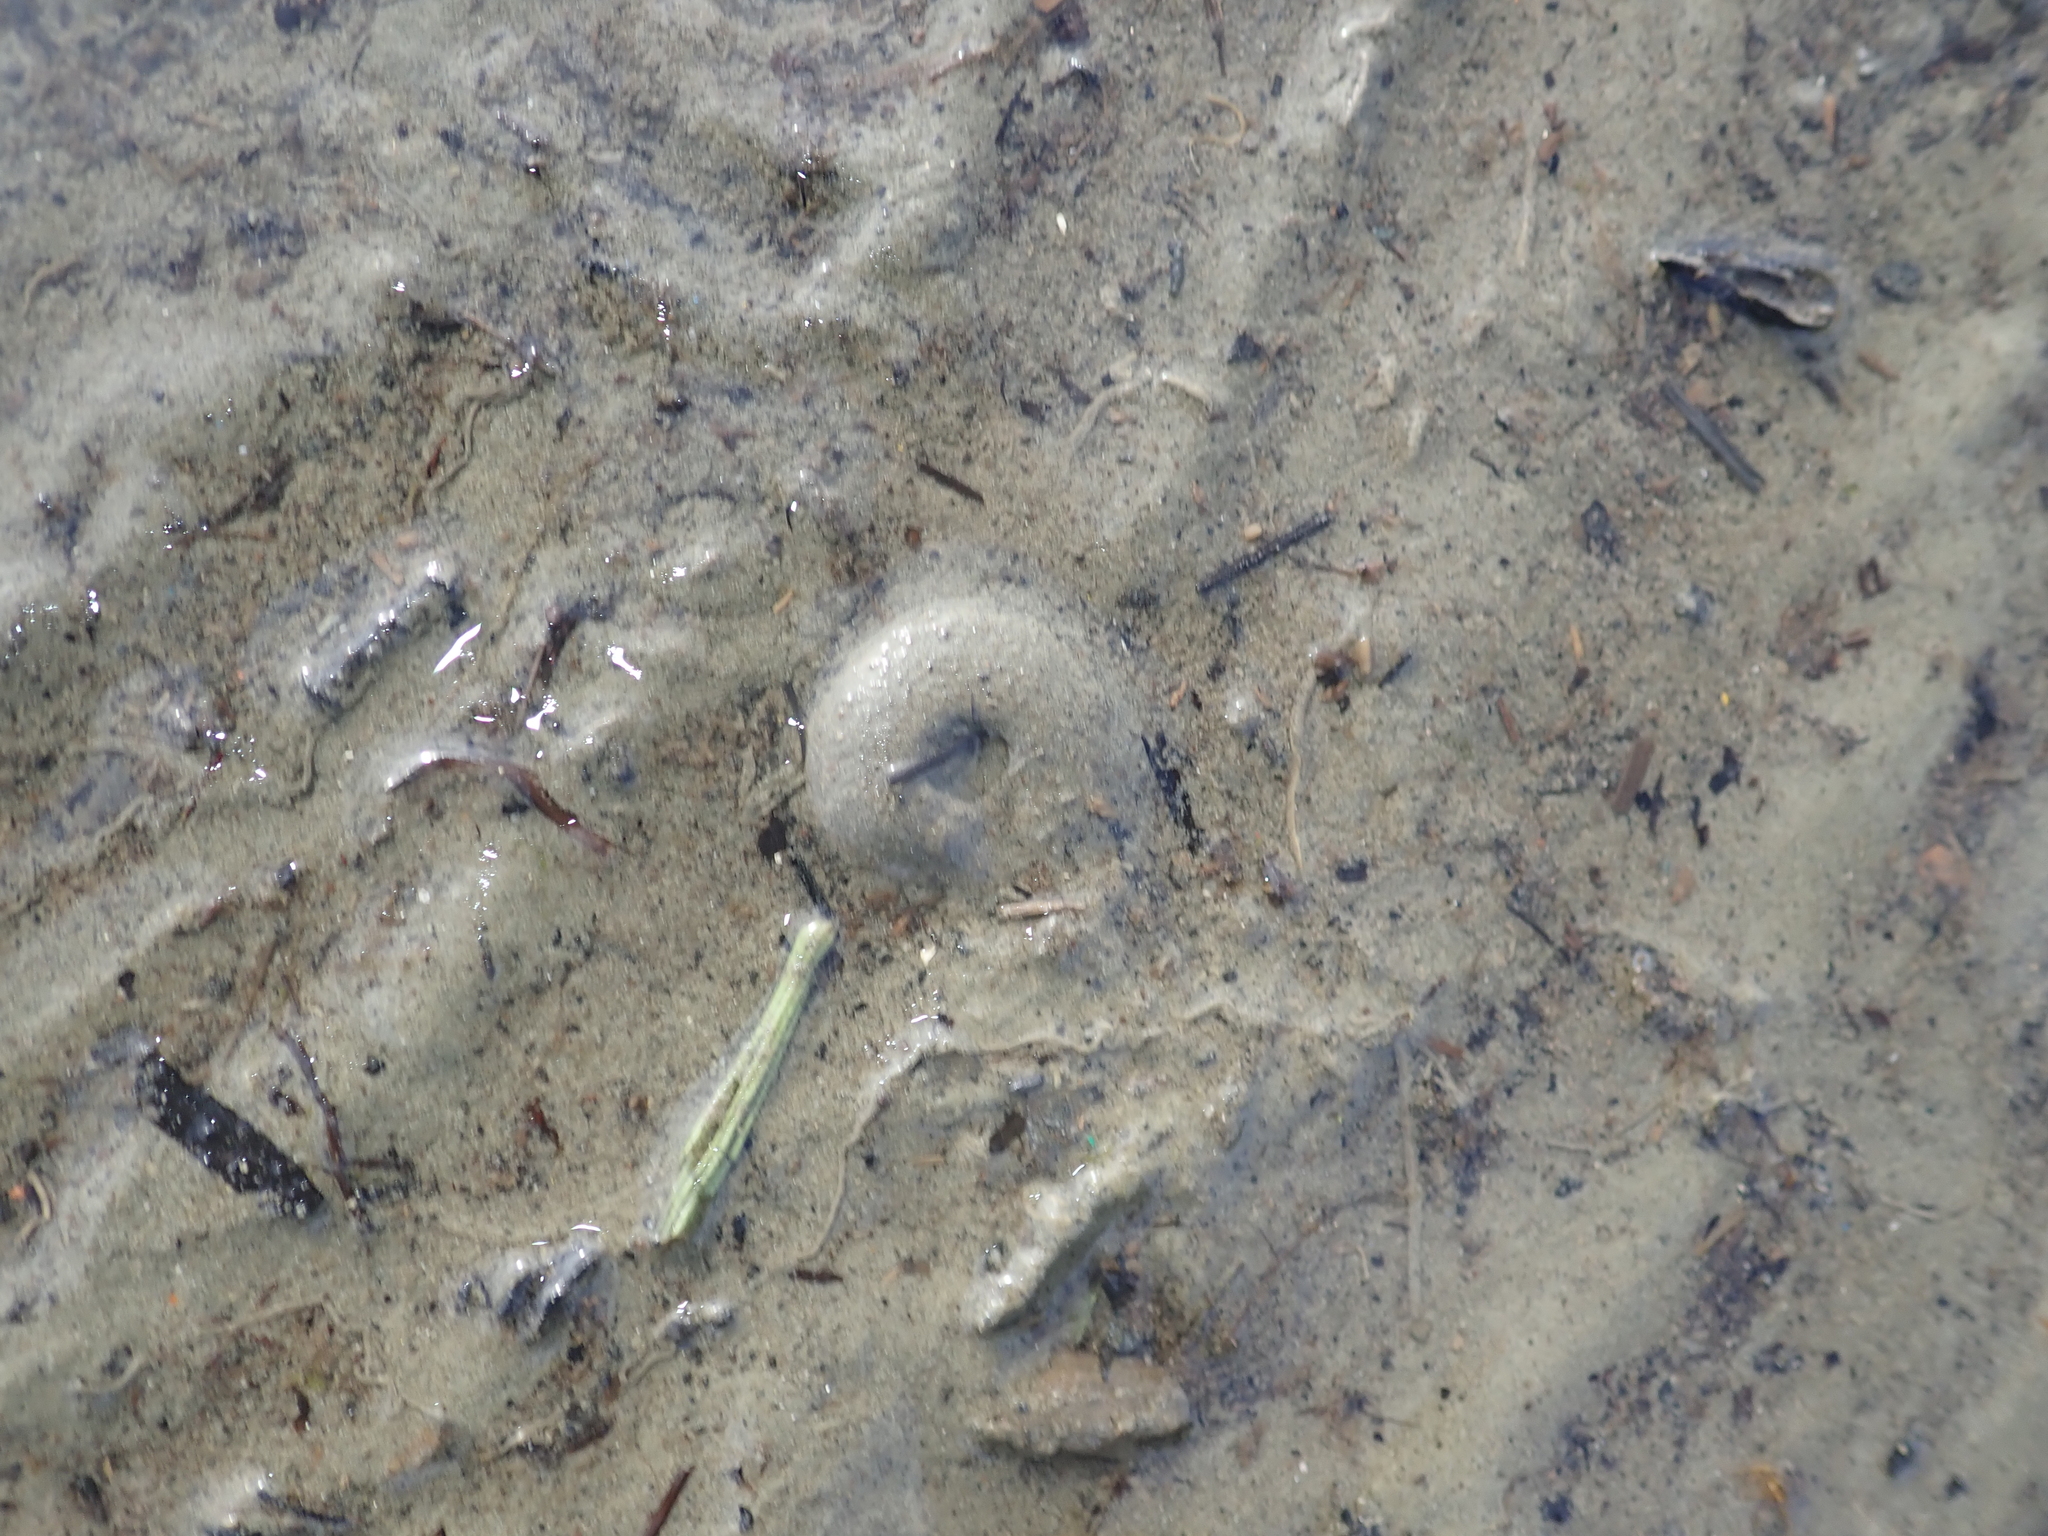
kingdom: Animalia
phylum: Mollusca
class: Gastropoda
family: Amphibolidae
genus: Amphibola
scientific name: Amphibola crenata
